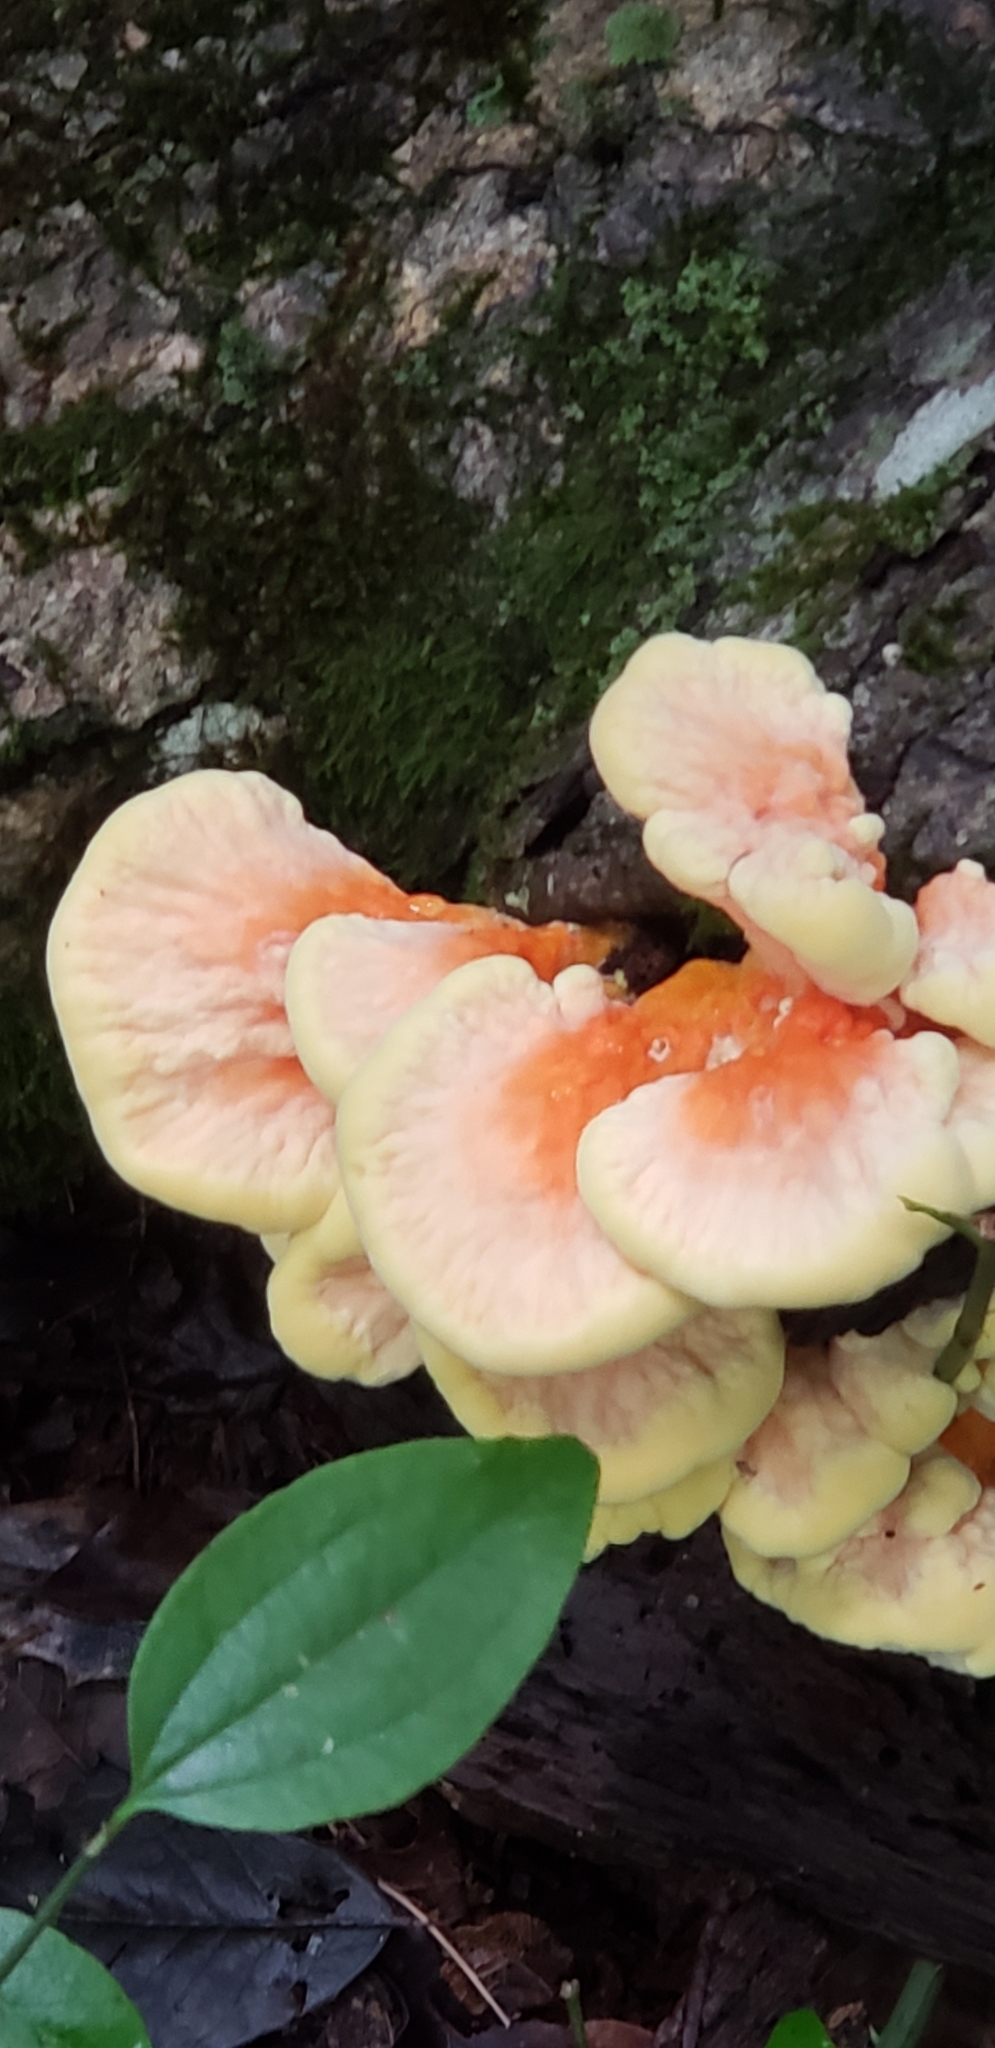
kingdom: Fungi
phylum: Basidiomycota
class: Agaricomycetes
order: Polyporales
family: Laetiporaceae
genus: Laetiporus
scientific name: Laetiporus sulphureus
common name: Chicken of the woods
